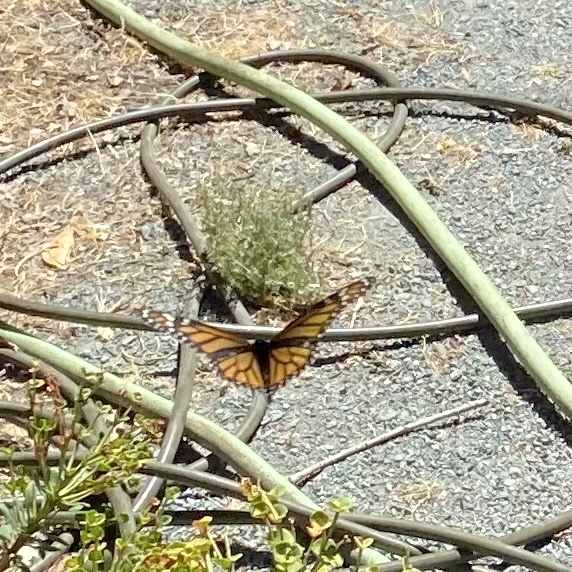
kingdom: Animalia
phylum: Arthropoda
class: Insecta
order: Lepidoptera
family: Nymphalidae
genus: Danaus
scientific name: Danaus plexippus
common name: Monarch
